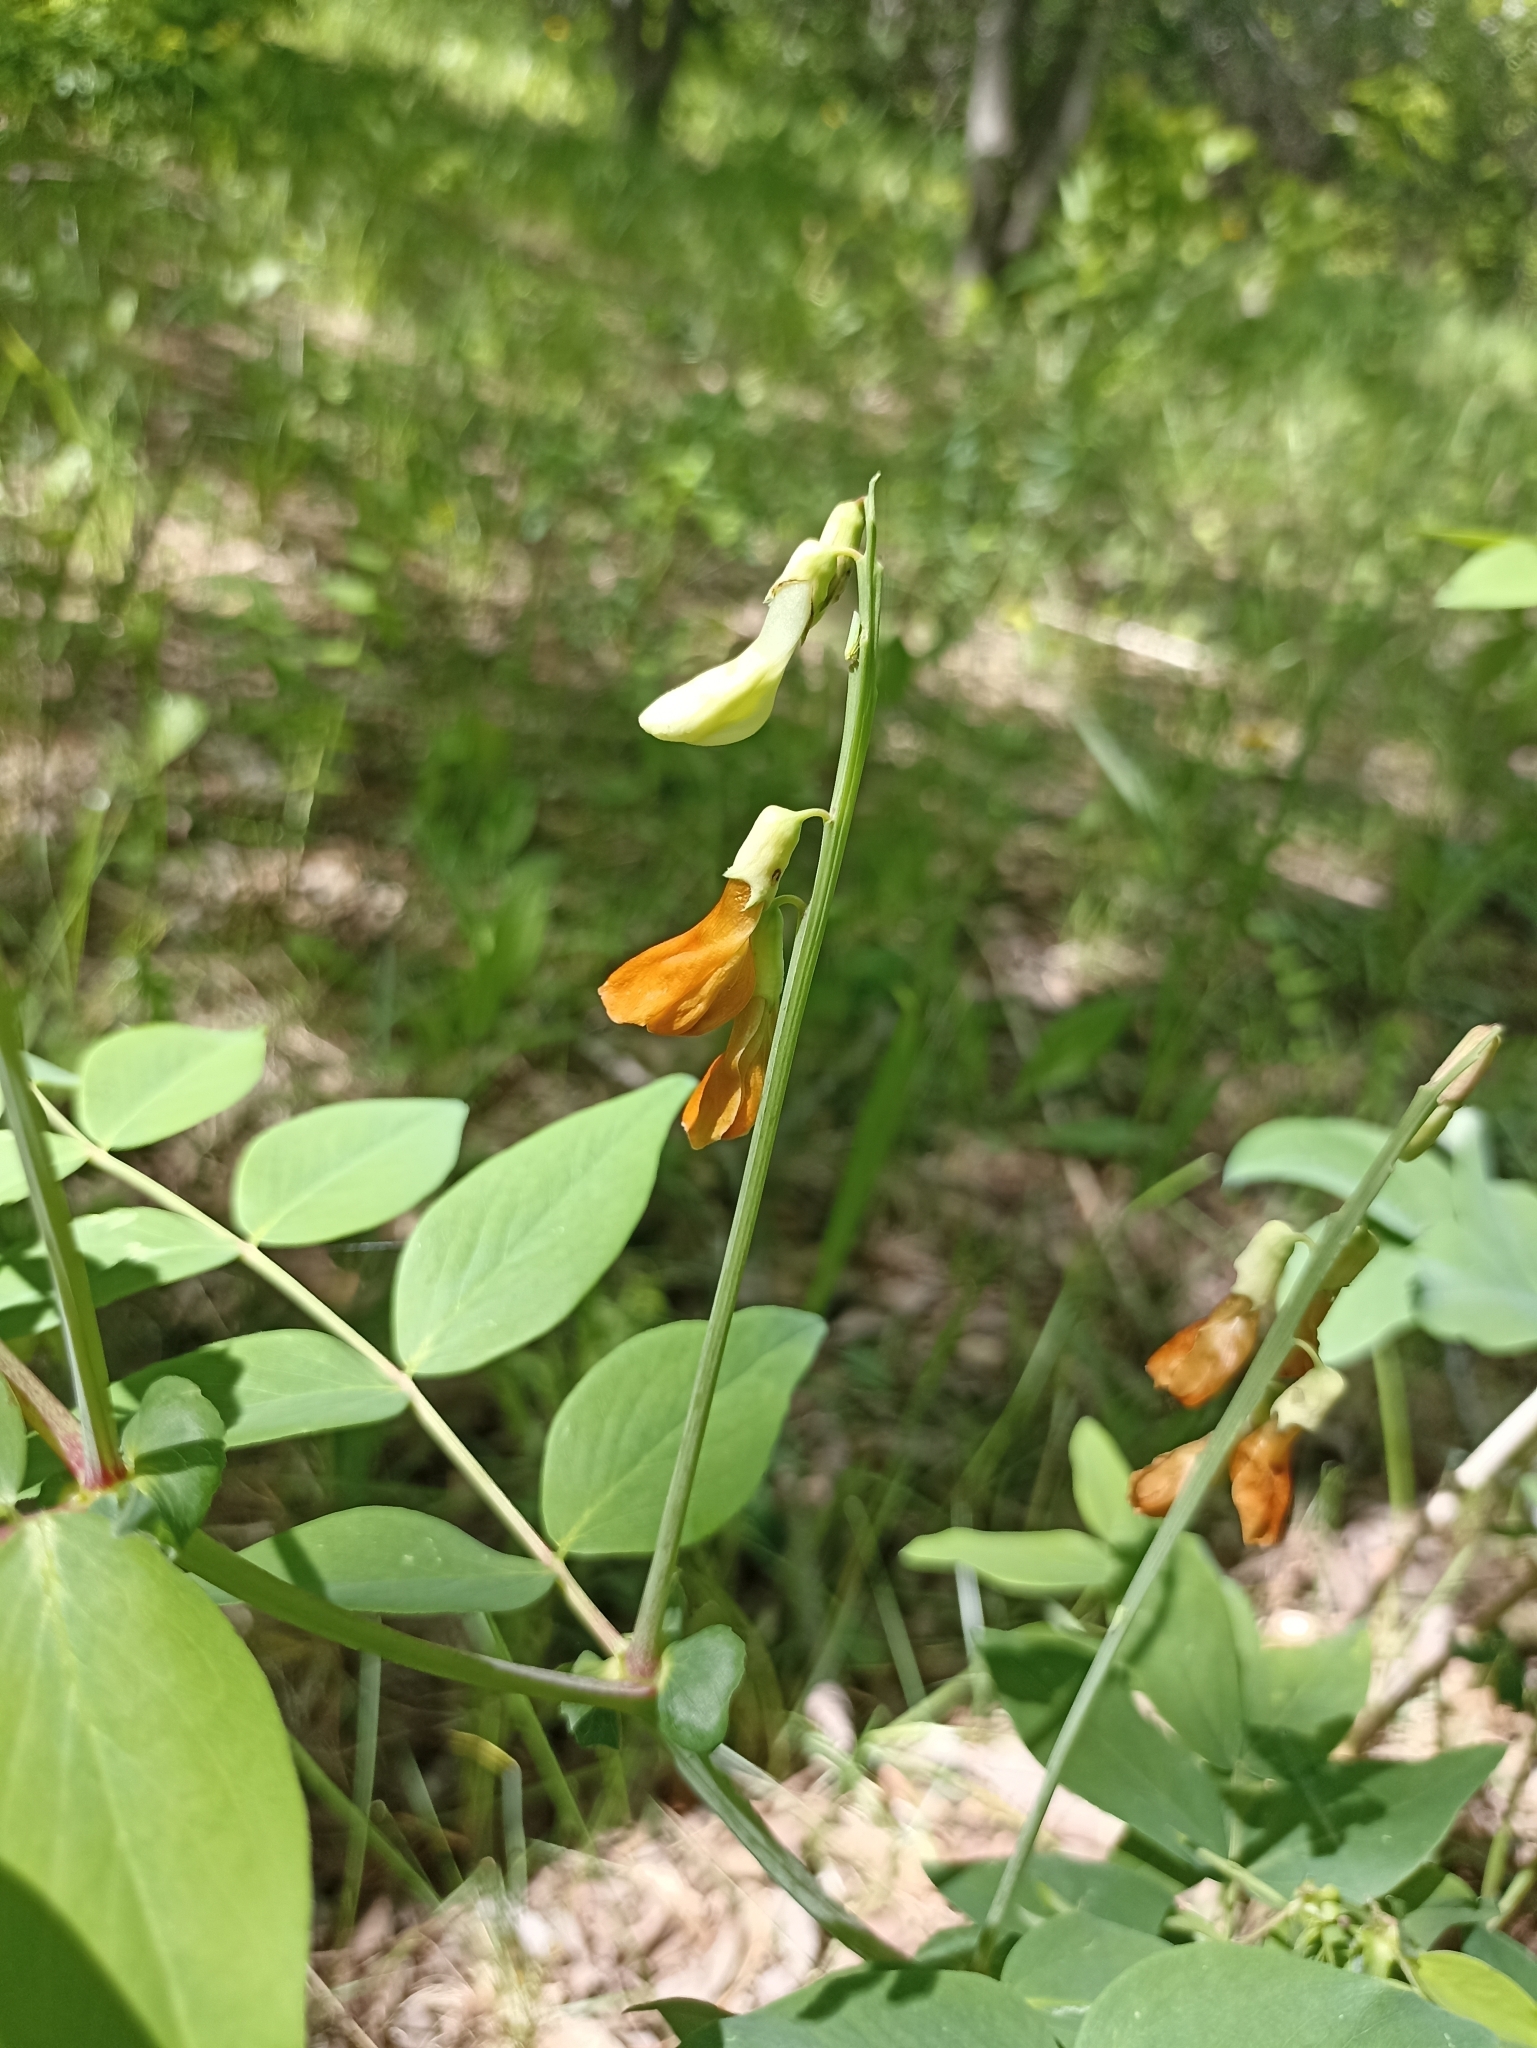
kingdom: Plantae
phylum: Tracheophyta
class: Magnoliopsida
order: Fabales
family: Fabaceae
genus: Lathyrus
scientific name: Lathyrus gmelinii
